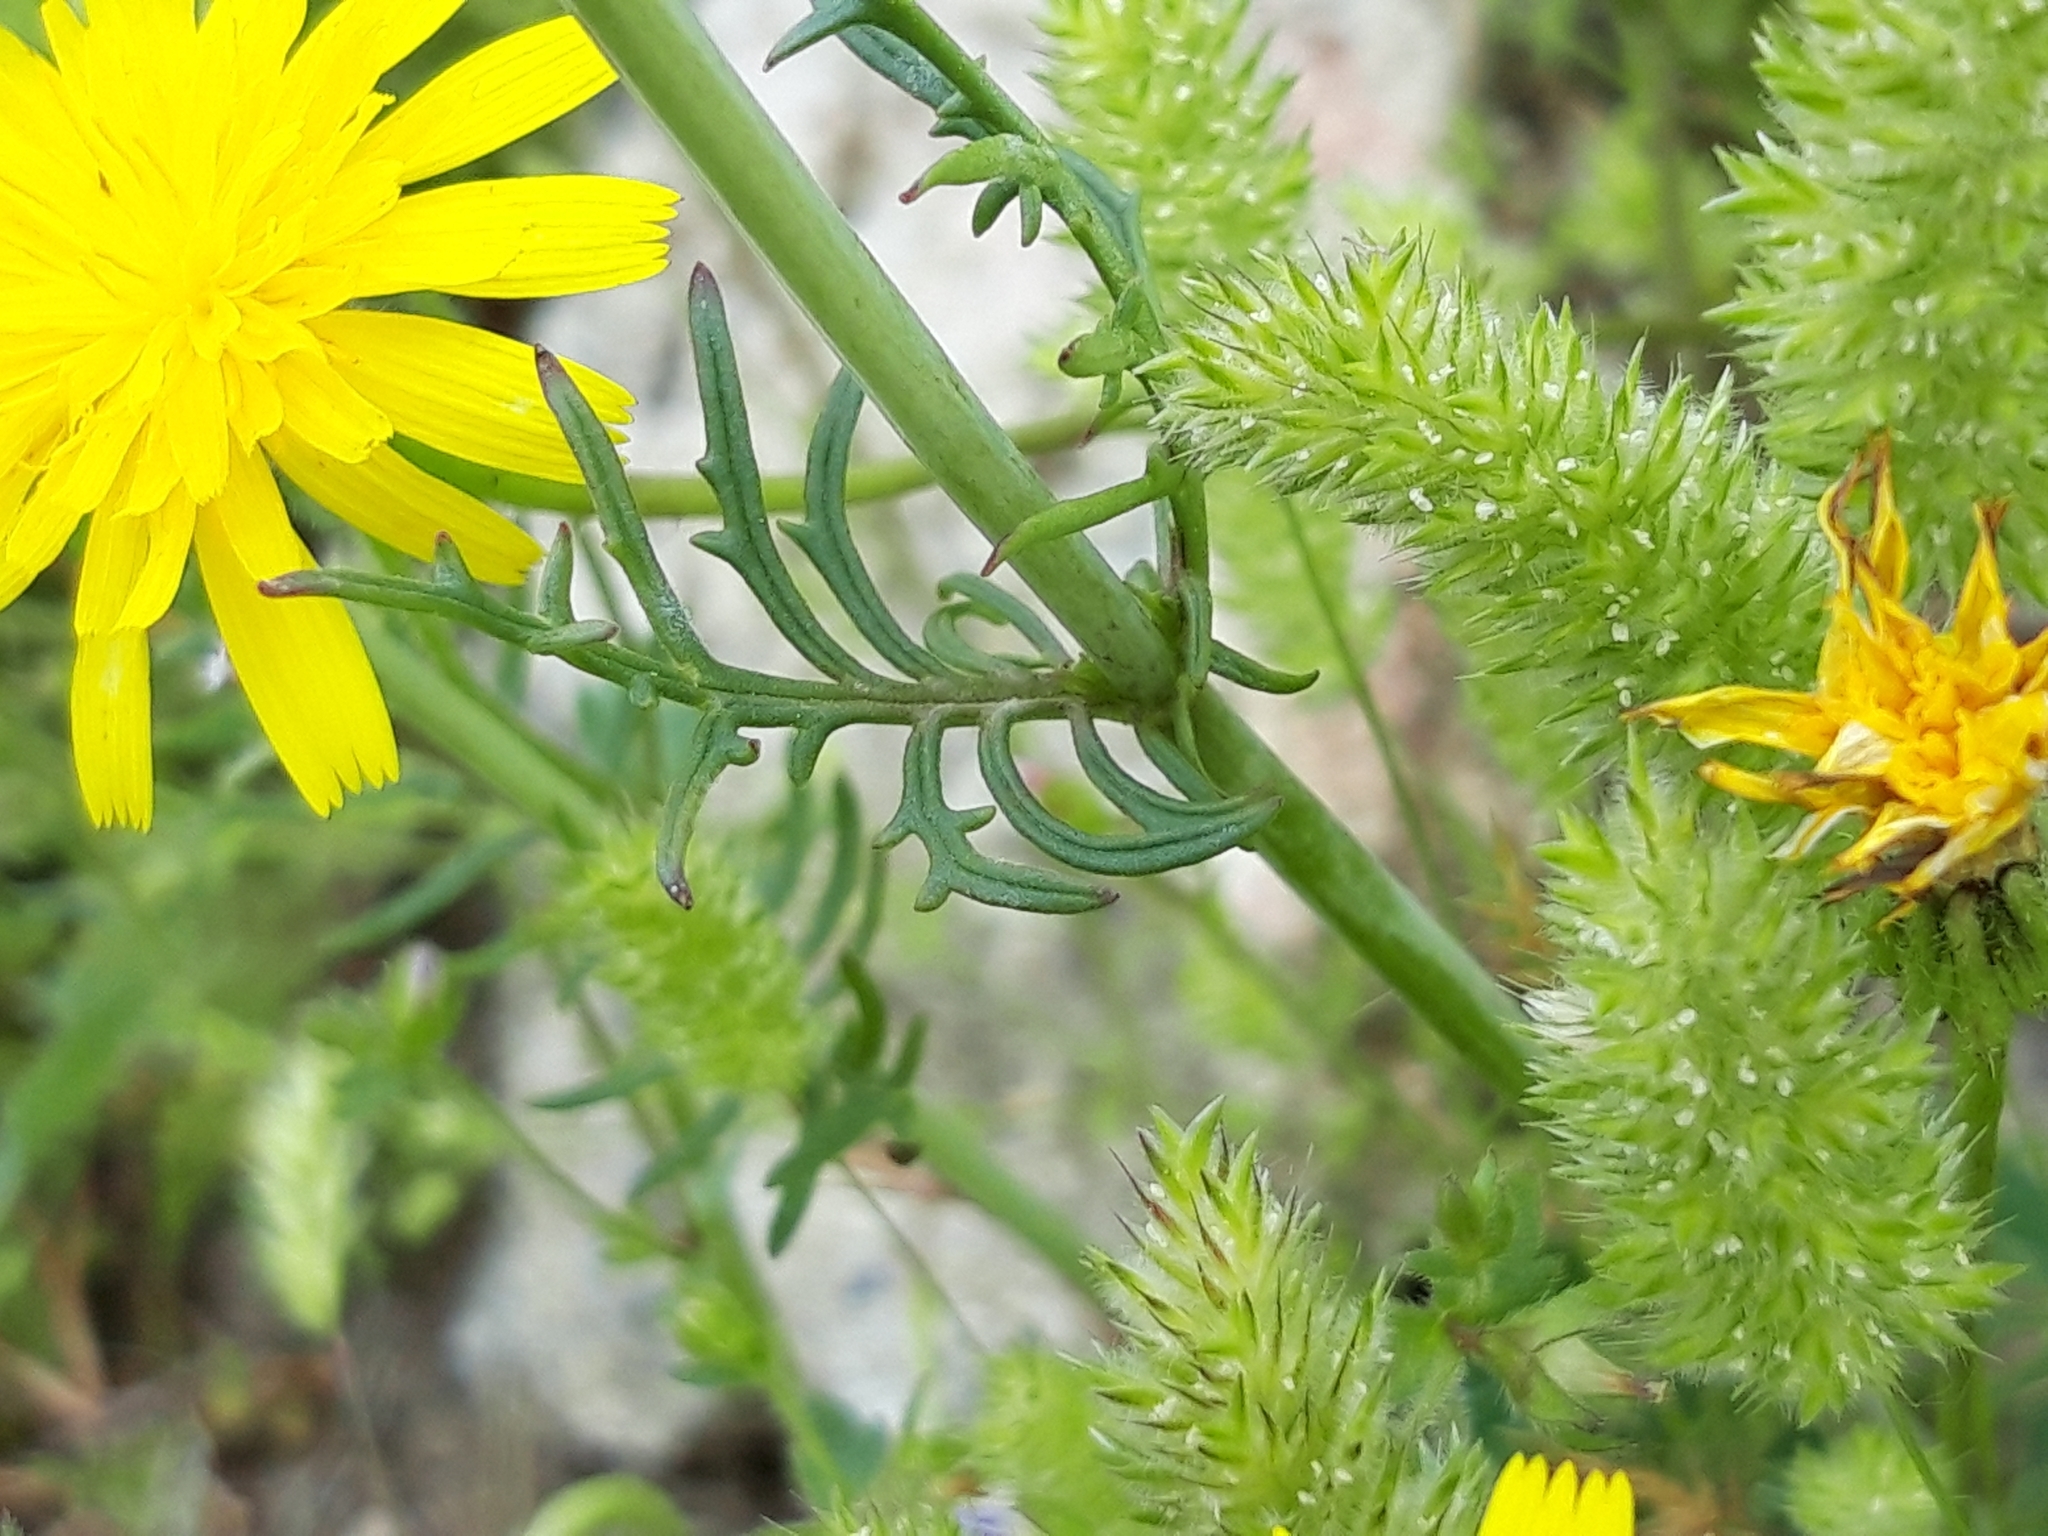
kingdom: Plantae
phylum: Tracheophyta
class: Magnoliopsida
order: Dipsacales
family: Caprifoliaceae
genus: Centranthus
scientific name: Centranthus calcitrapae
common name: Annual valerian
